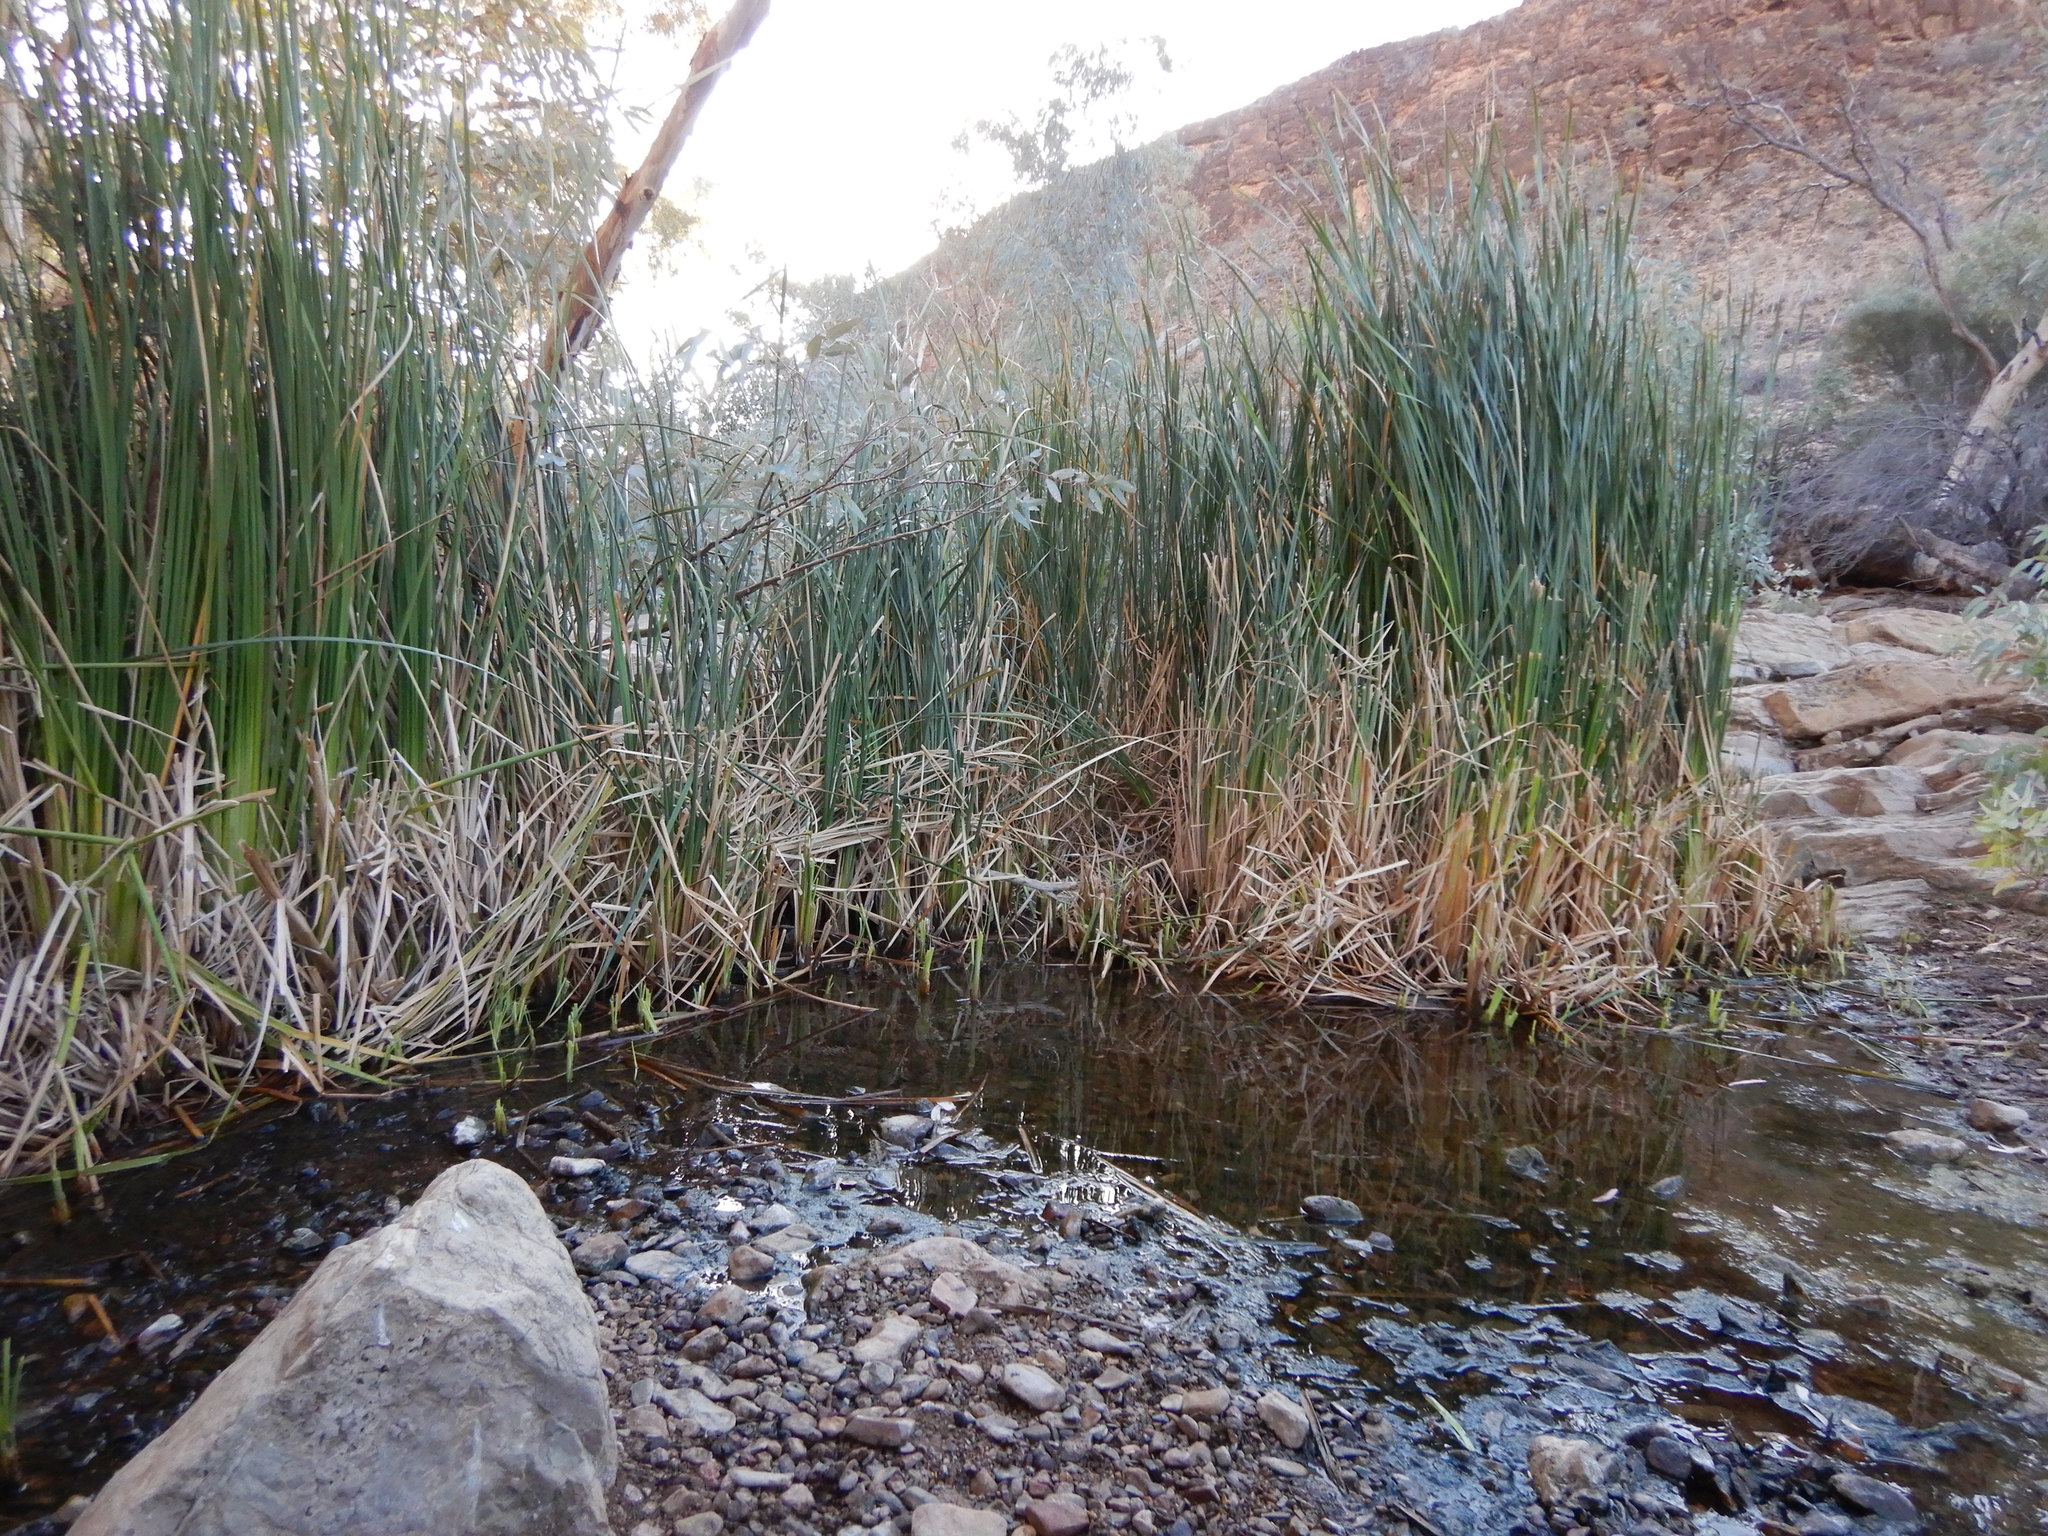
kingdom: Plantae
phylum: Tracheophyta
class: Liliopsida
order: Poales
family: Typhaceae
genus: Typha
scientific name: Typha domingensis
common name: Southern cattail
